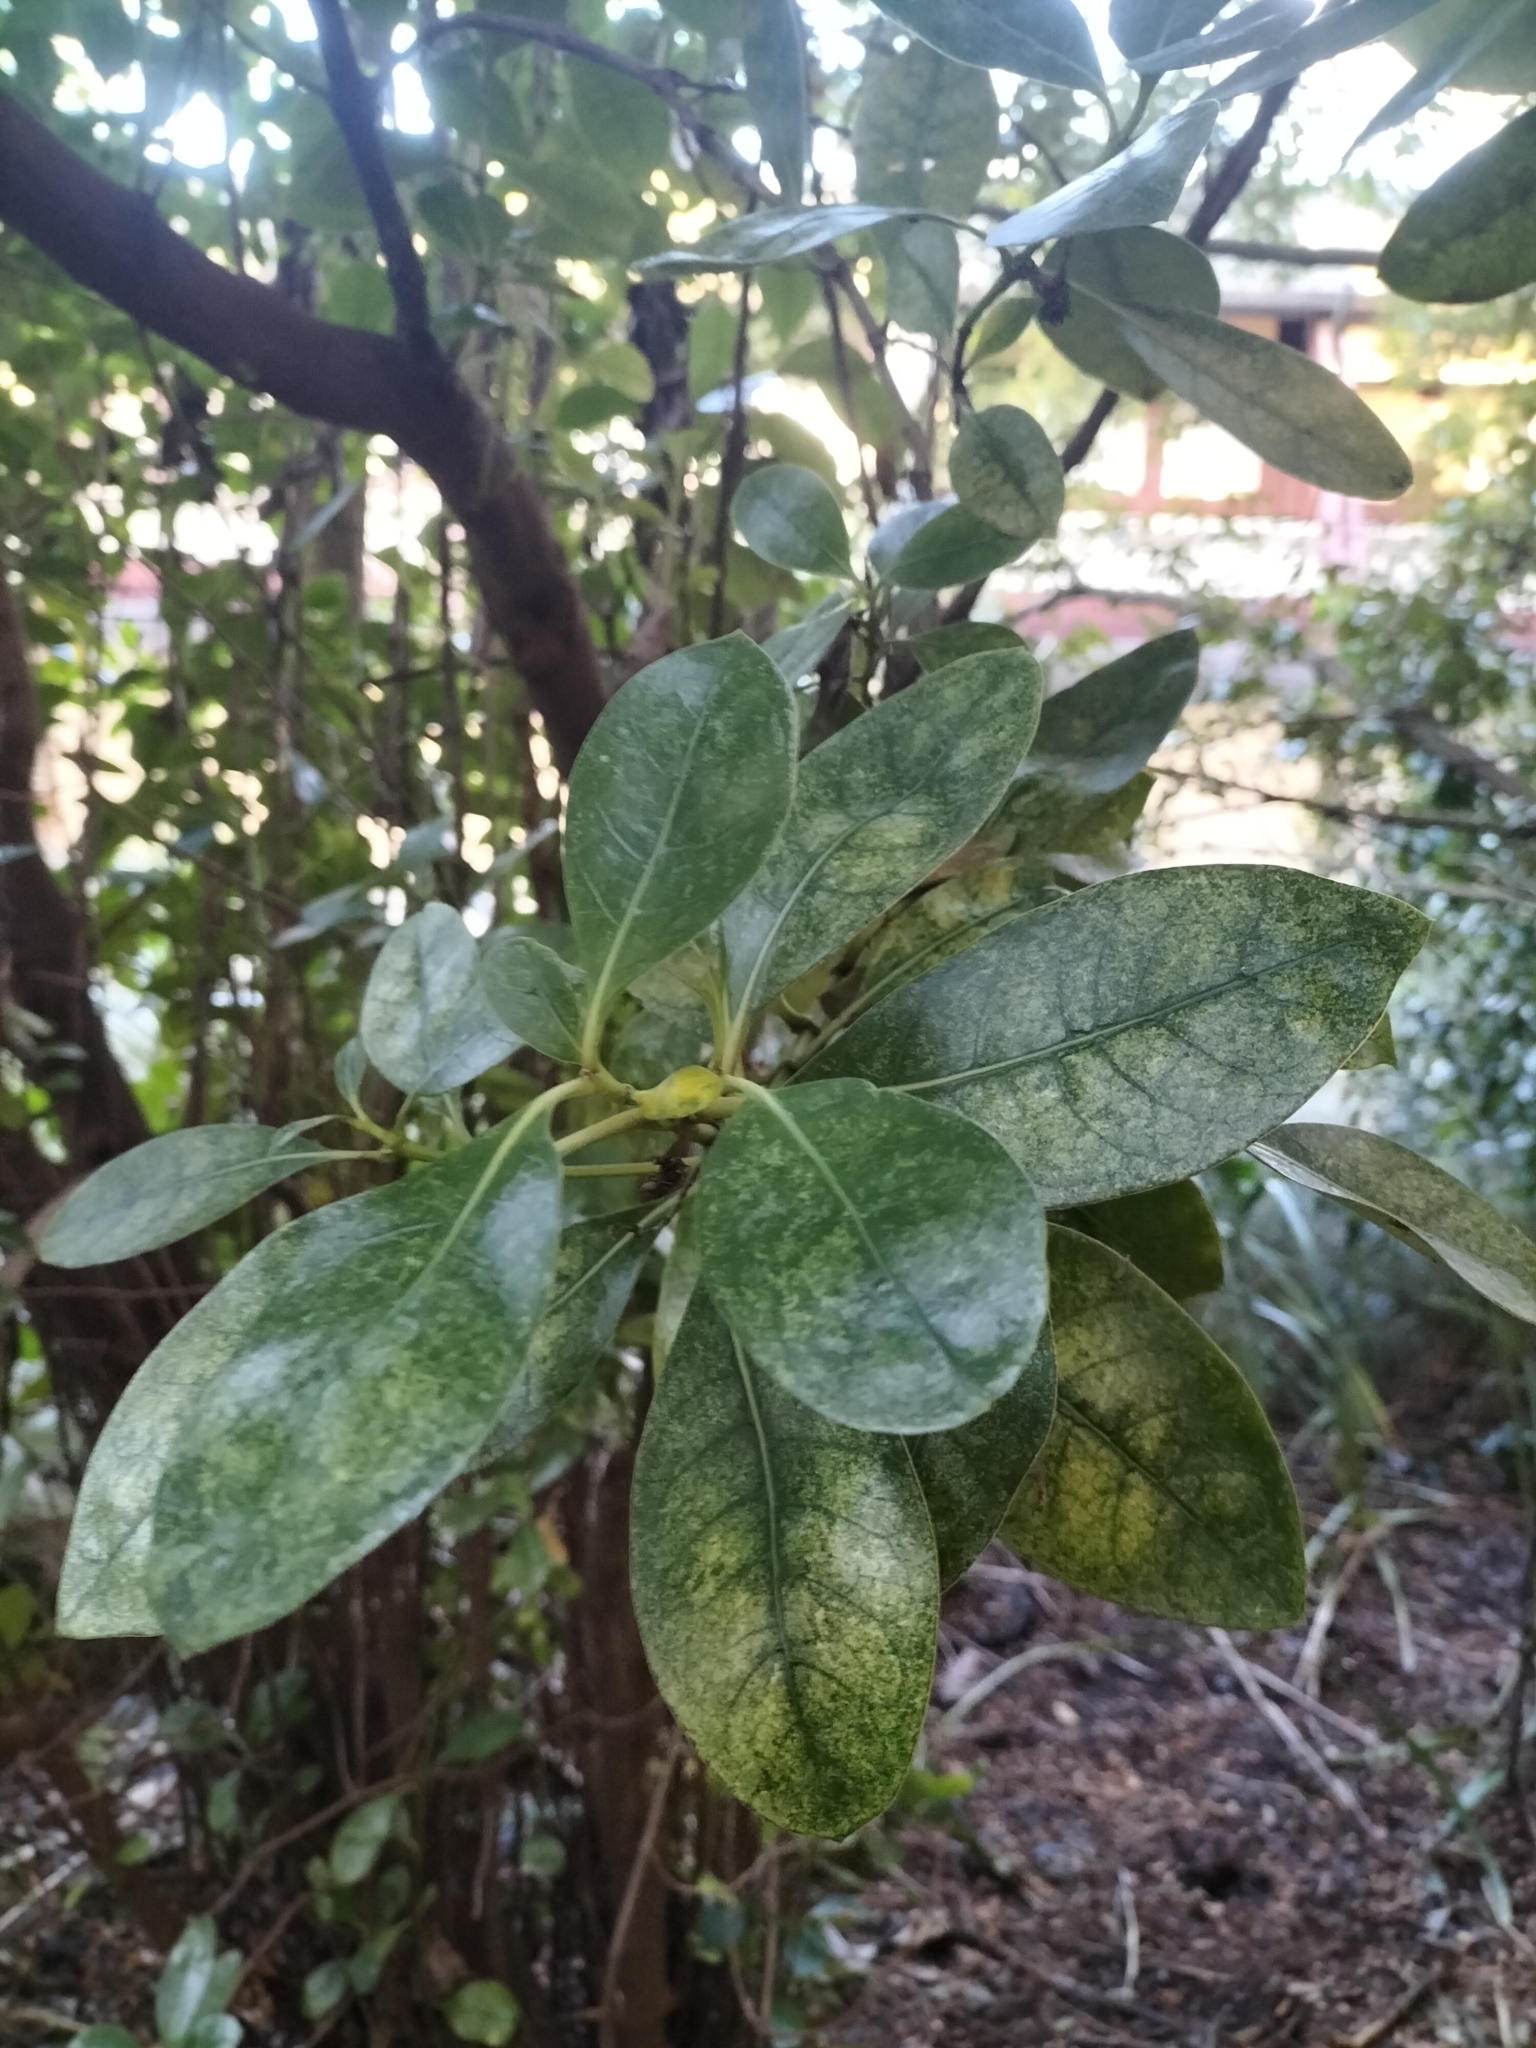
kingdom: Plantae
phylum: Tracheophyta
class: Magnoliopsida
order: Gentianales
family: Rubiaceae
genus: Coprosma
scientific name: Coprosma lucida
